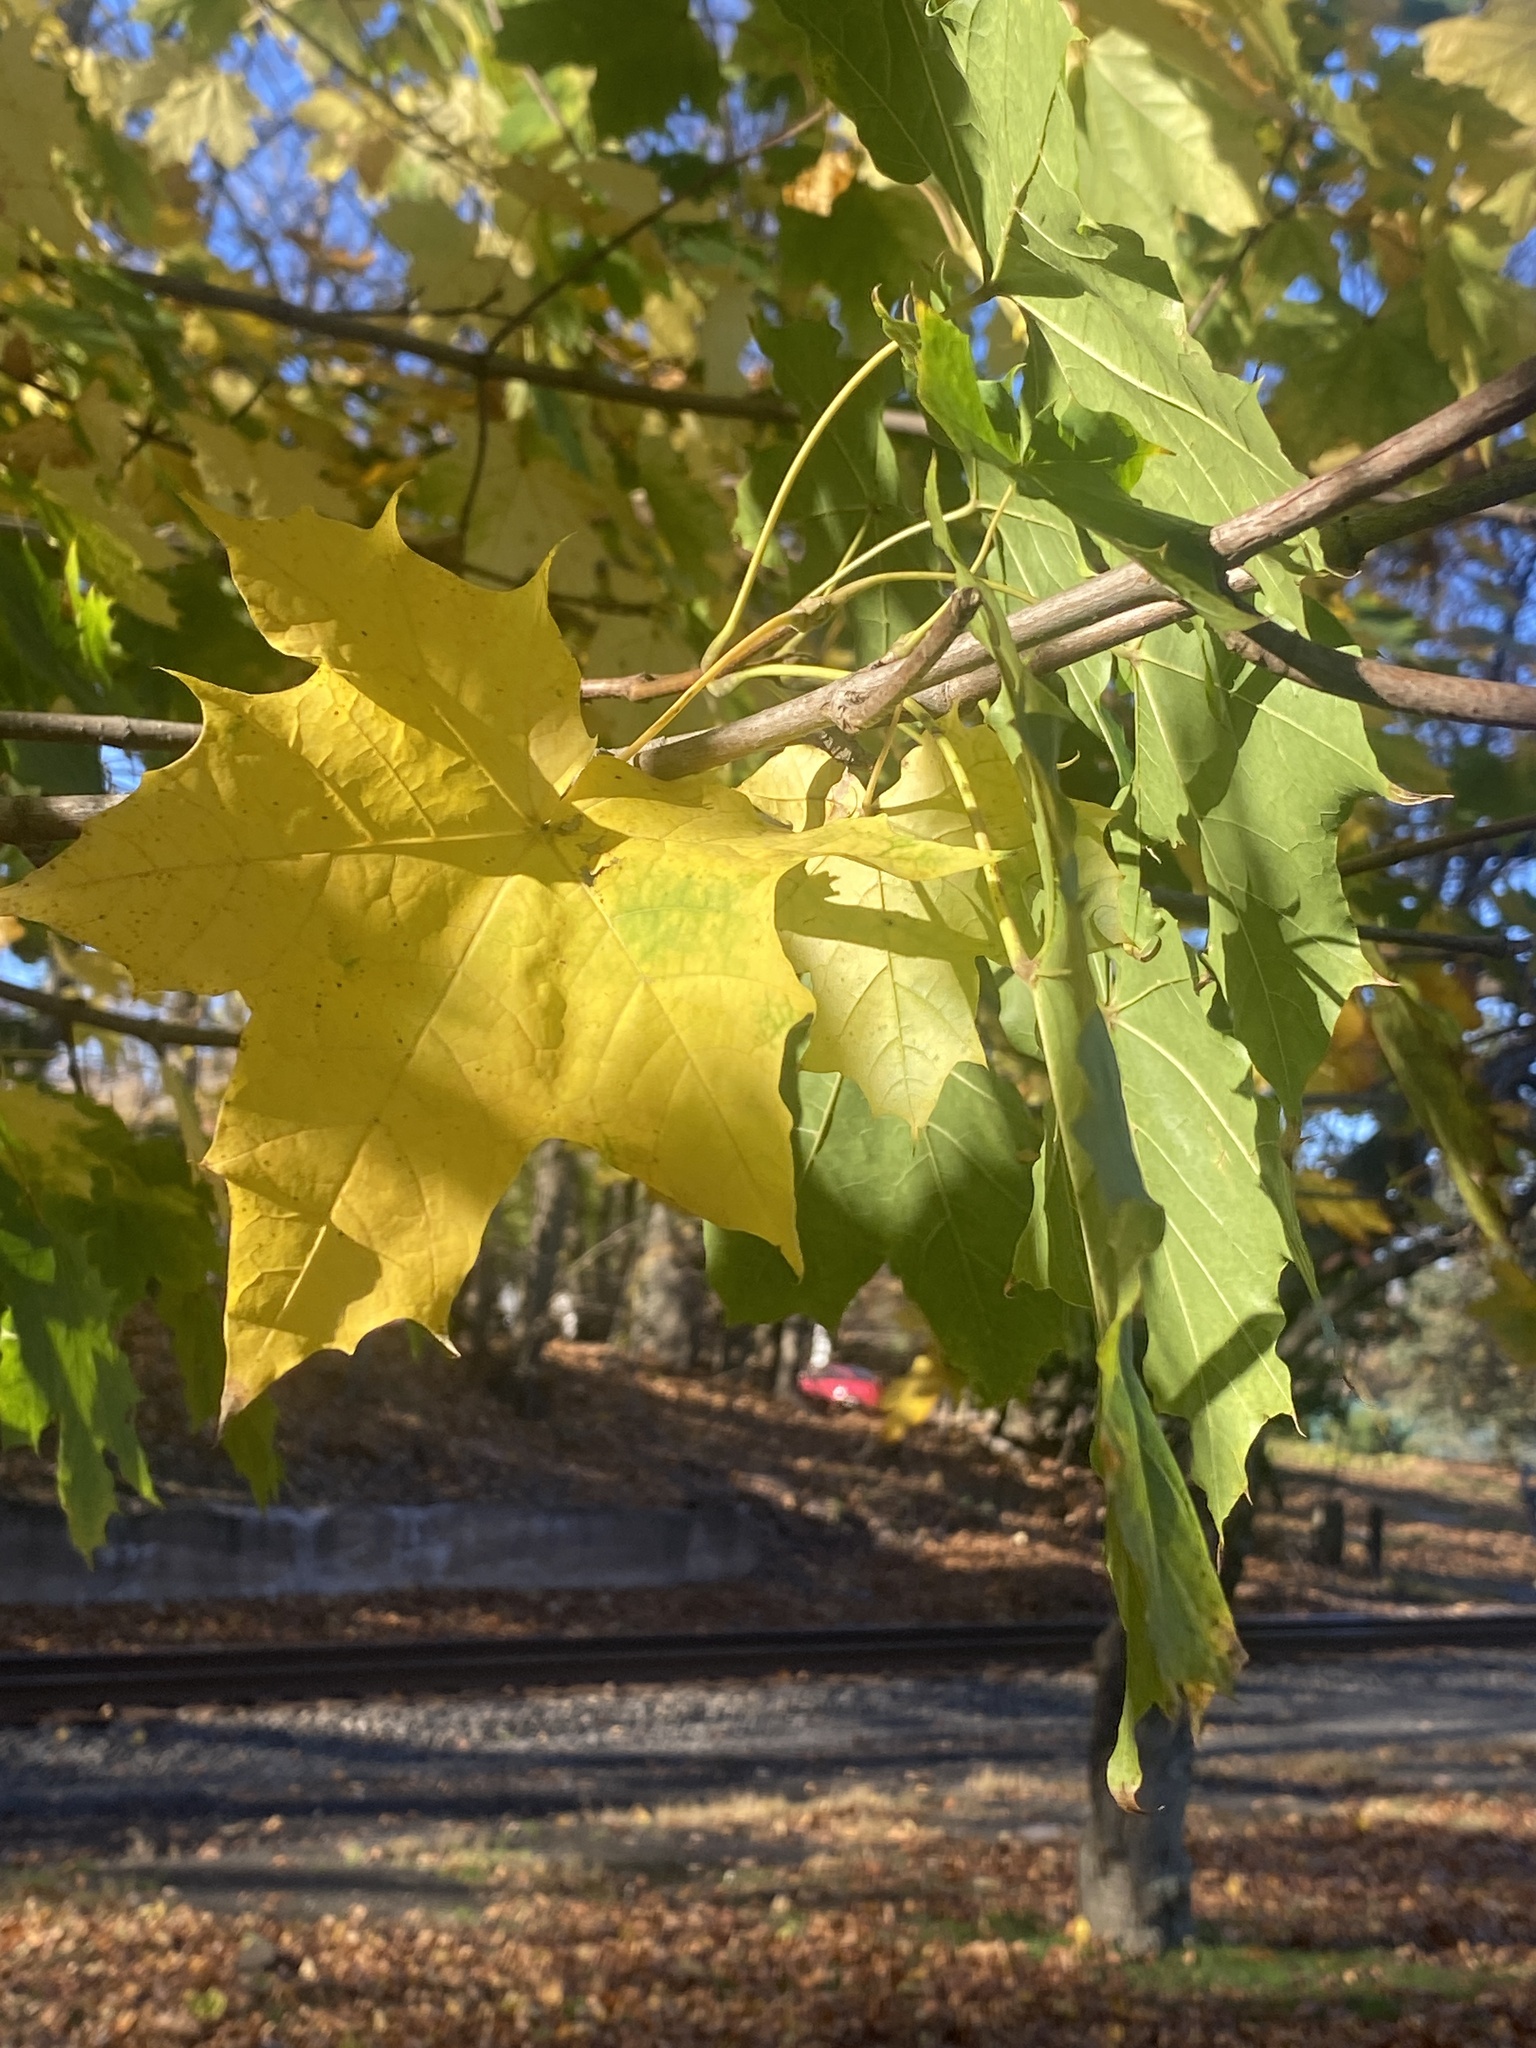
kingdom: Plantae
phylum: Tracheophyta
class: Magnoliopsida
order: Sapindales
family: Sapindaceae
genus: Acer
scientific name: Acer platanoides
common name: Norway maple
